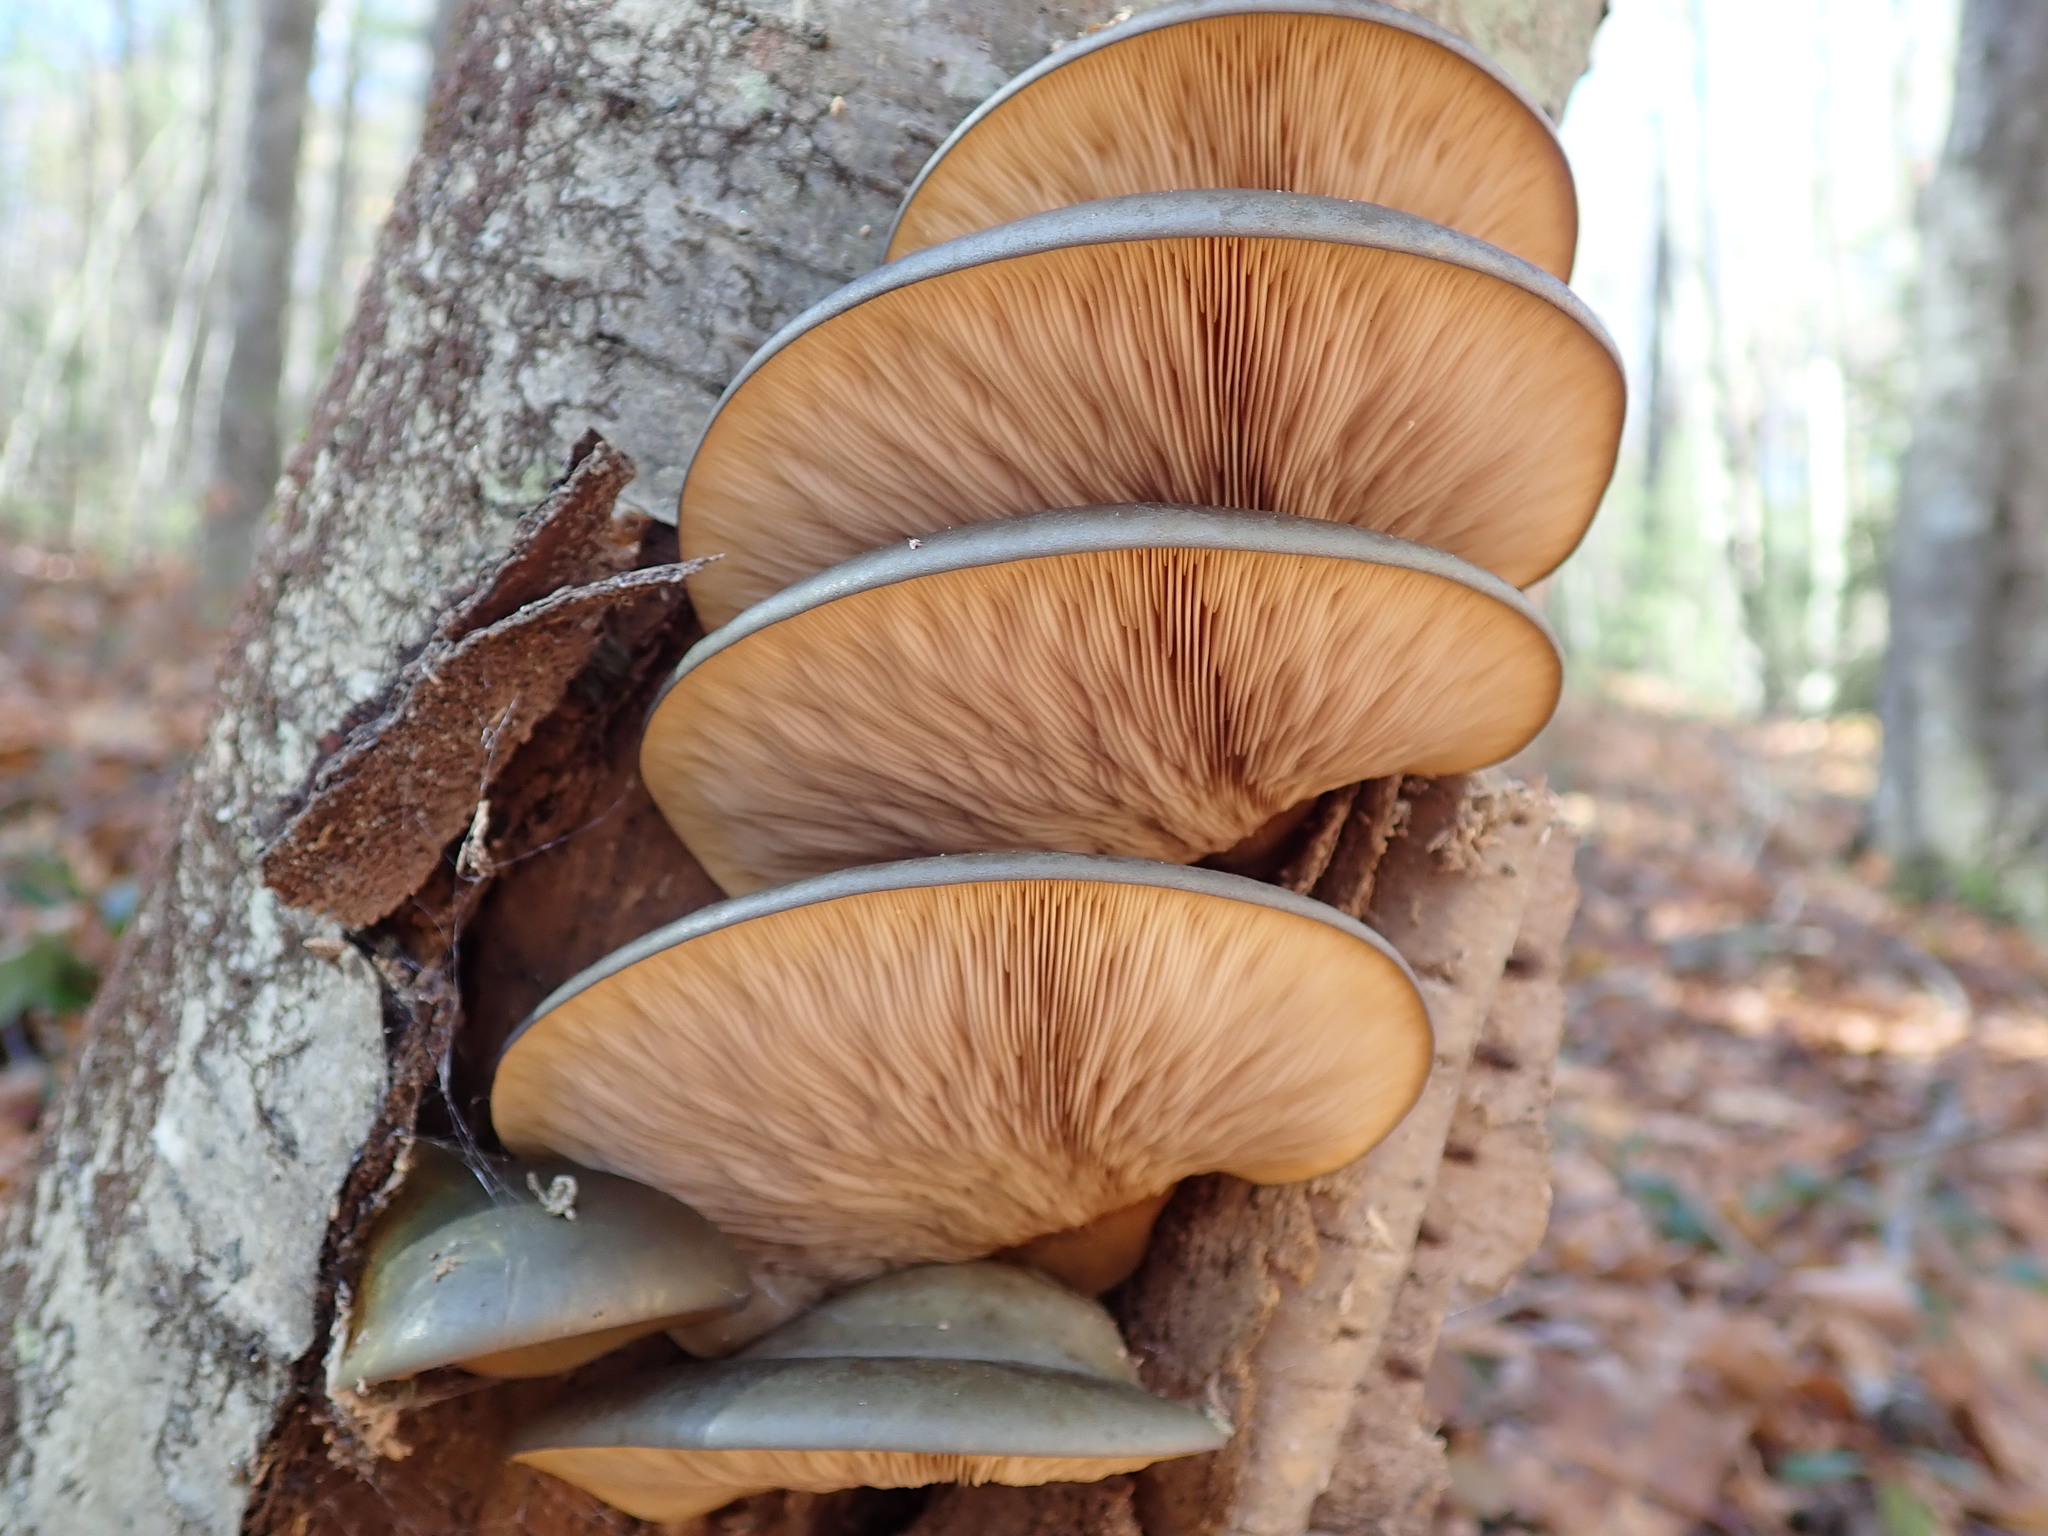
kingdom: Fungi
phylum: Basidiomycota
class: Agaricomycetes
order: Agaricales
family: Sarcomyxaceae
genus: Sarcomyxa
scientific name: Sarcomyxa serotina
